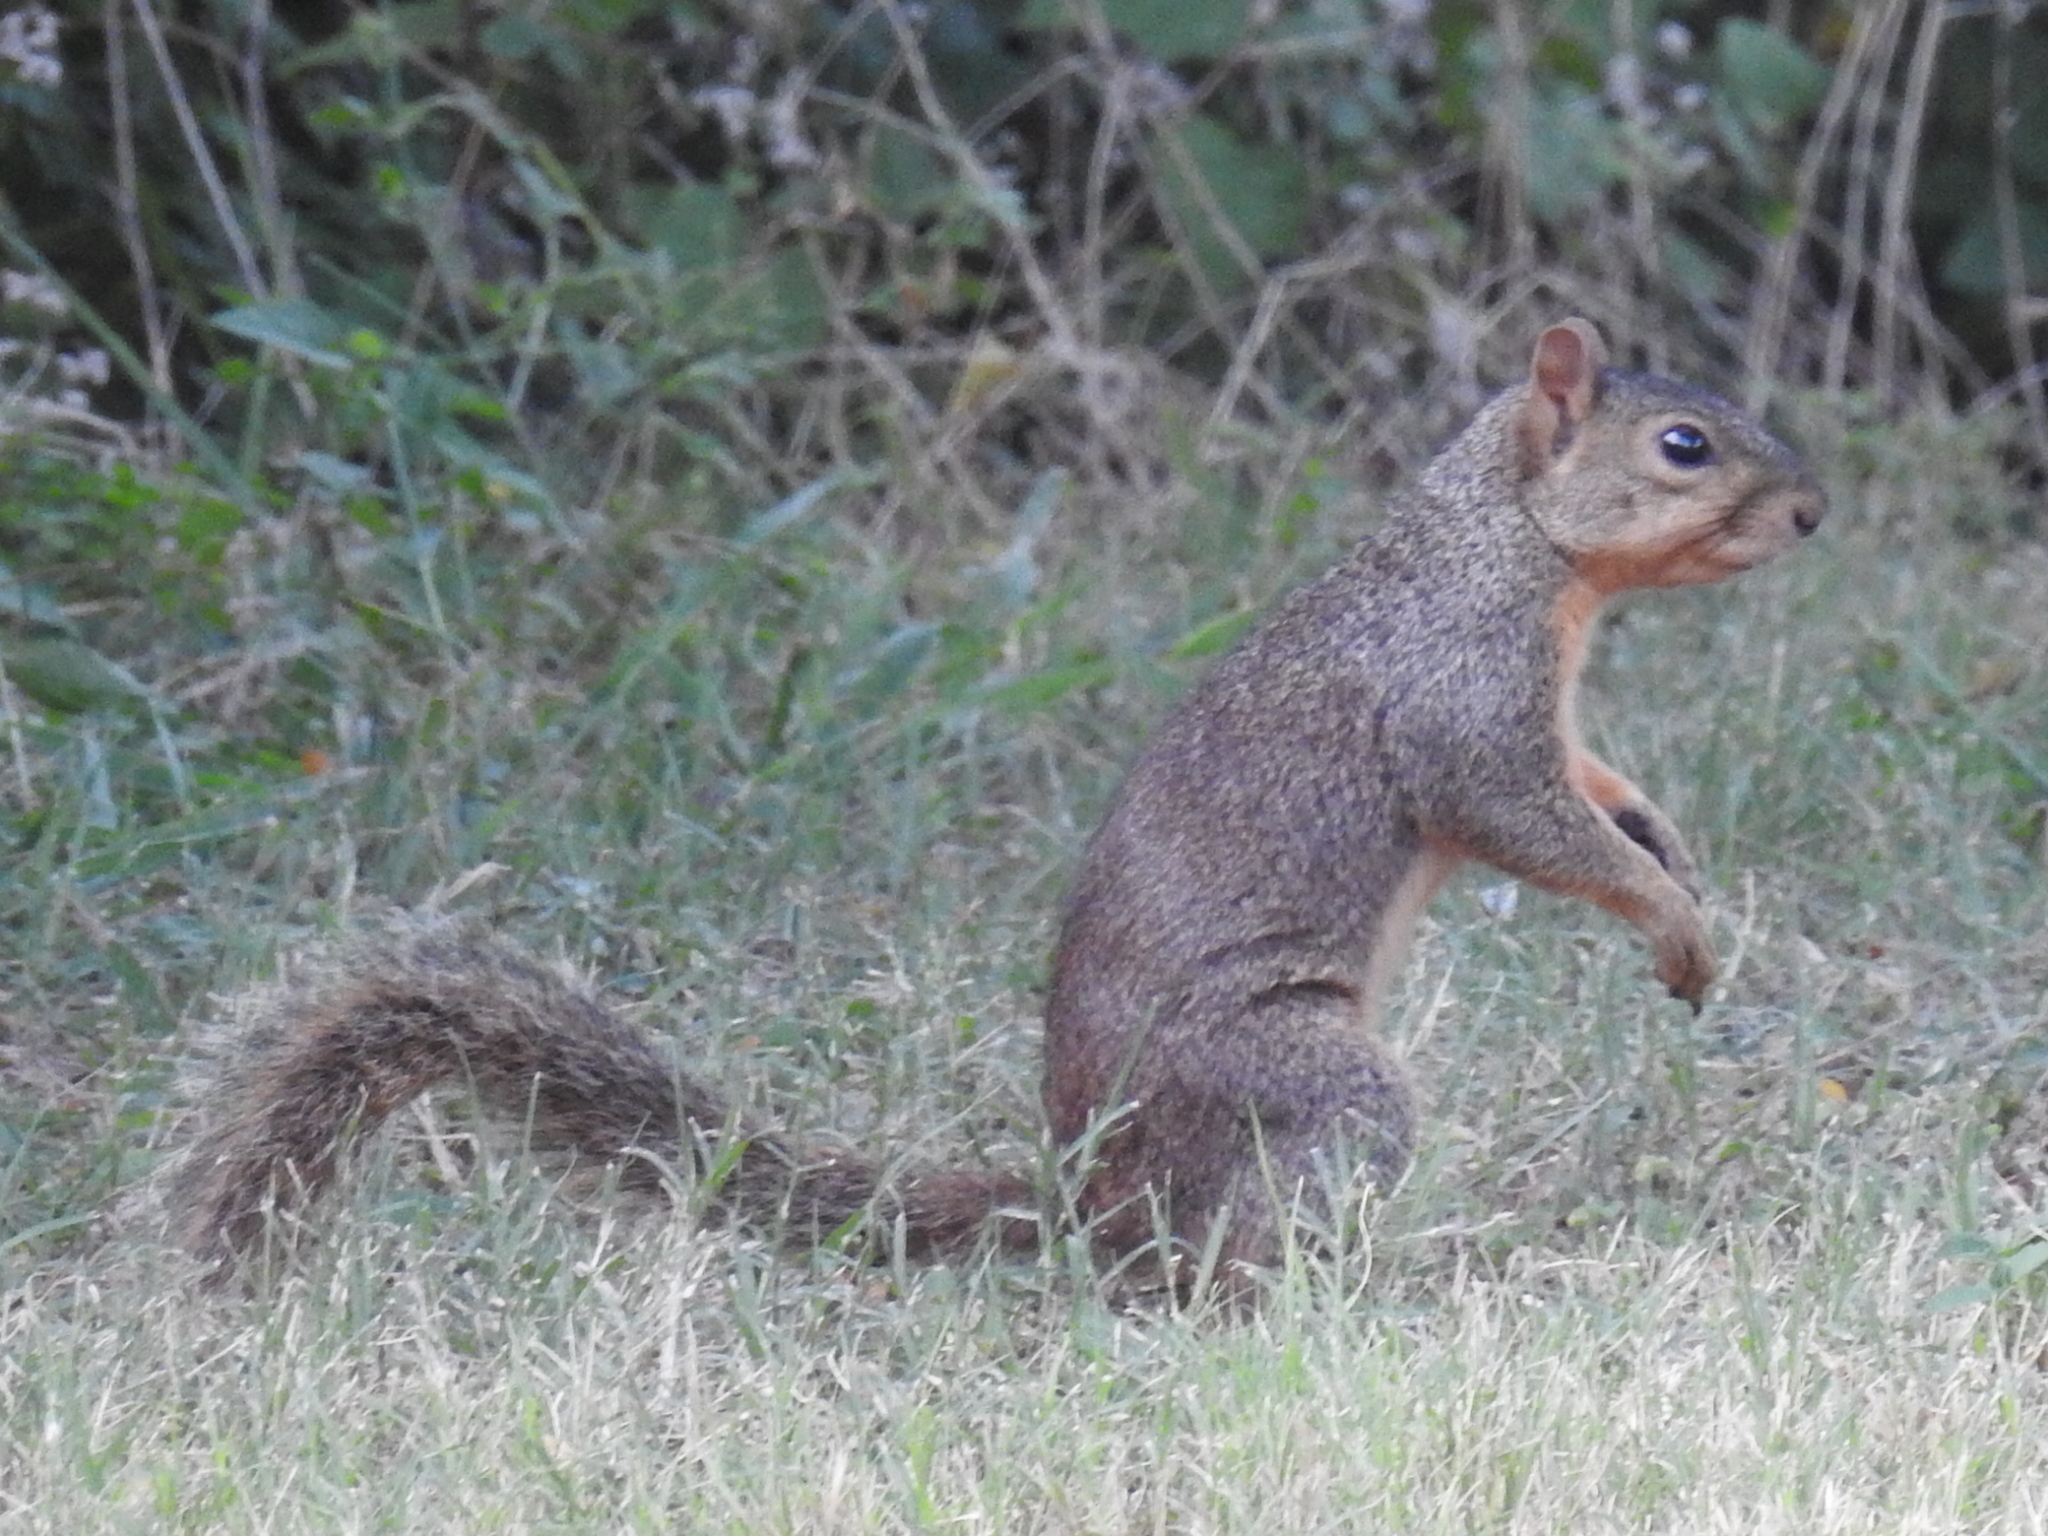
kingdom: Animalia
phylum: Chordata
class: Mammalia
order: Rodentia
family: Sciuridae
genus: Sciurus
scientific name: Sciurus niger
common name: Fox squirrel
